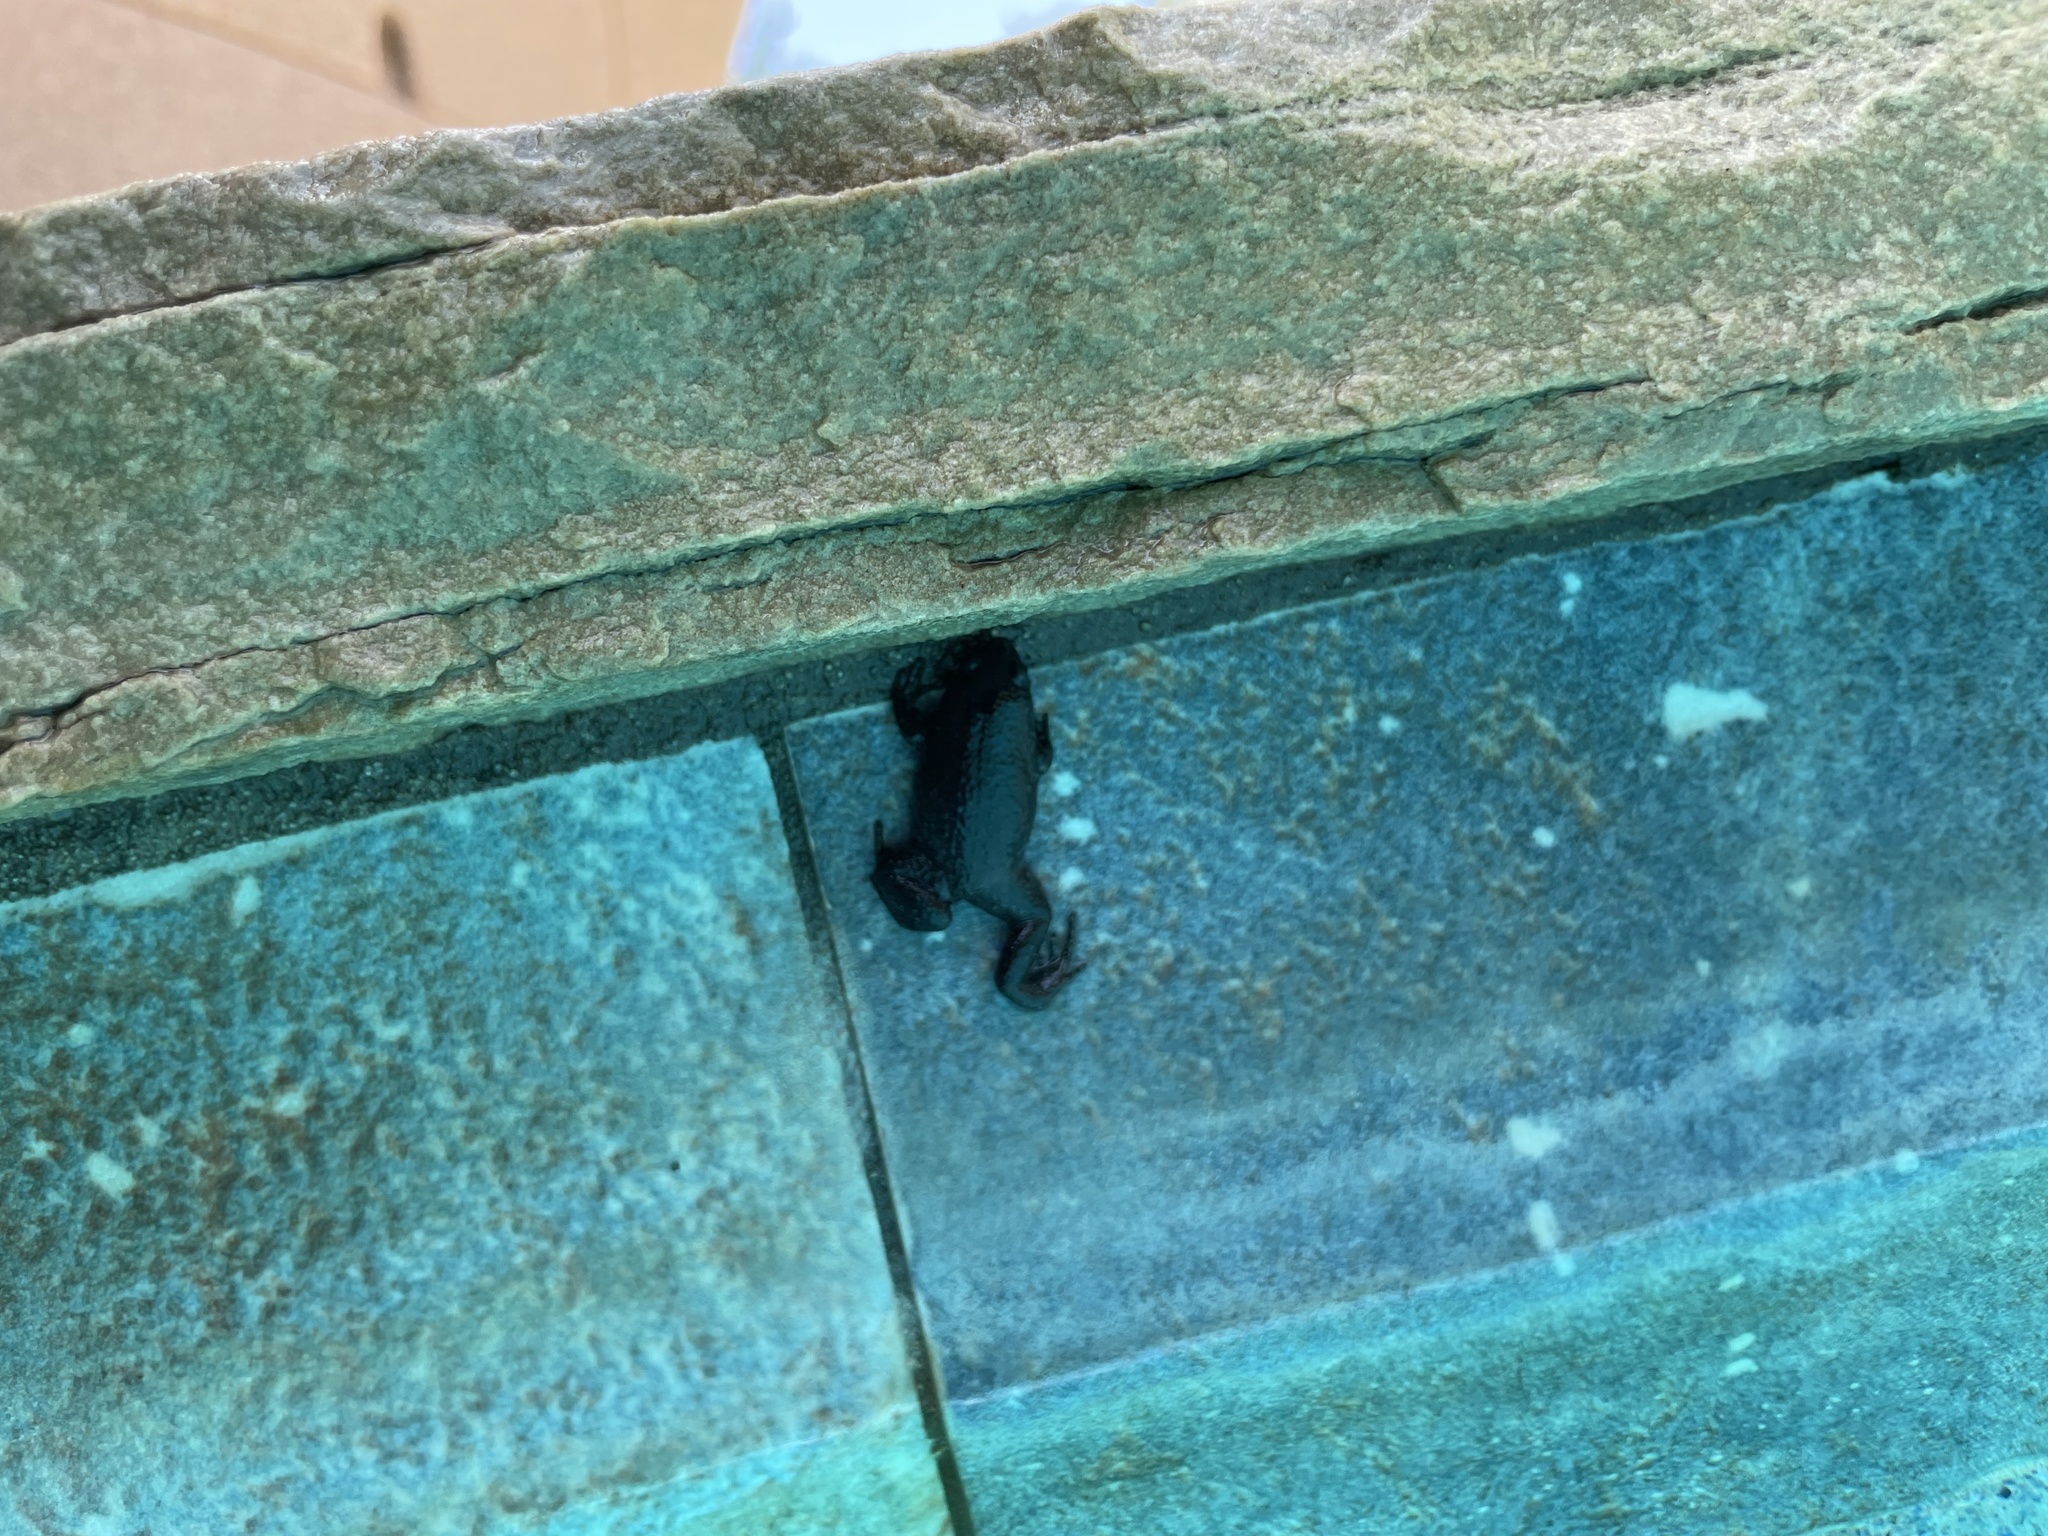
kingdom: Animalia
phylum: Chordata
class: Amphibia
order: Anura
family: Microhylidae
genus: Gastrophryne
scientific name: Gastrophryne carolinensis
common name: Eastern narrowmouth toad
